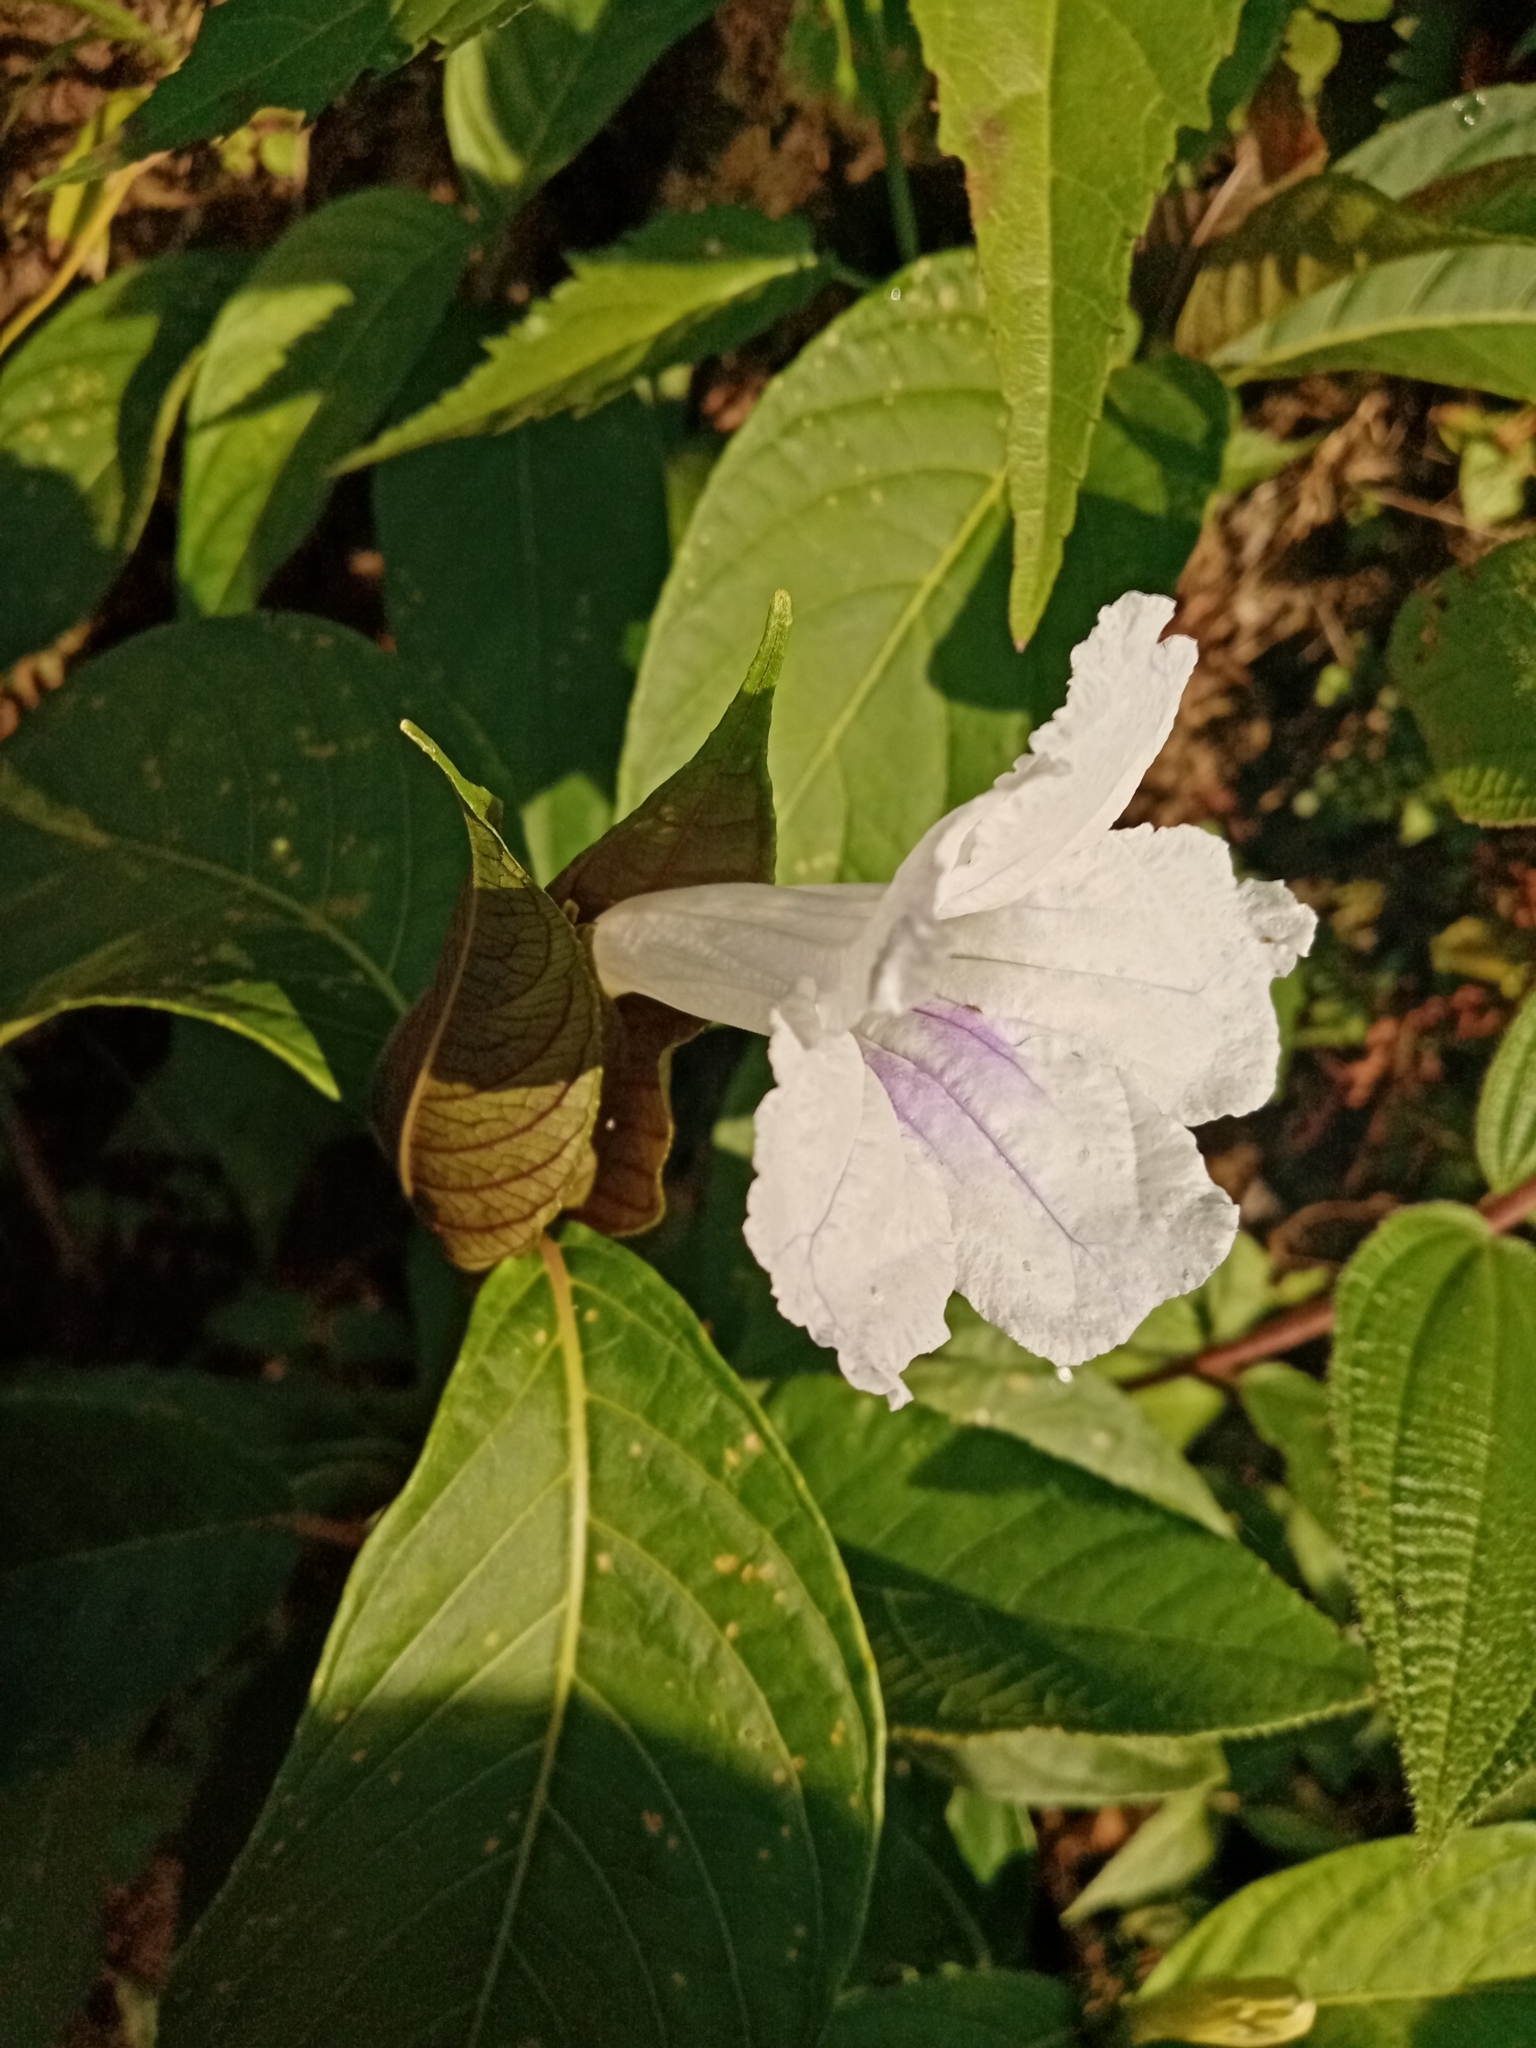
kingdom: Plantae
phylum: Tracheophyta
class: Magnoliopsida
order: Lamiales
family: Acanthaceae
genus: Ruellia
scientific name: Ruellia tubiflora
